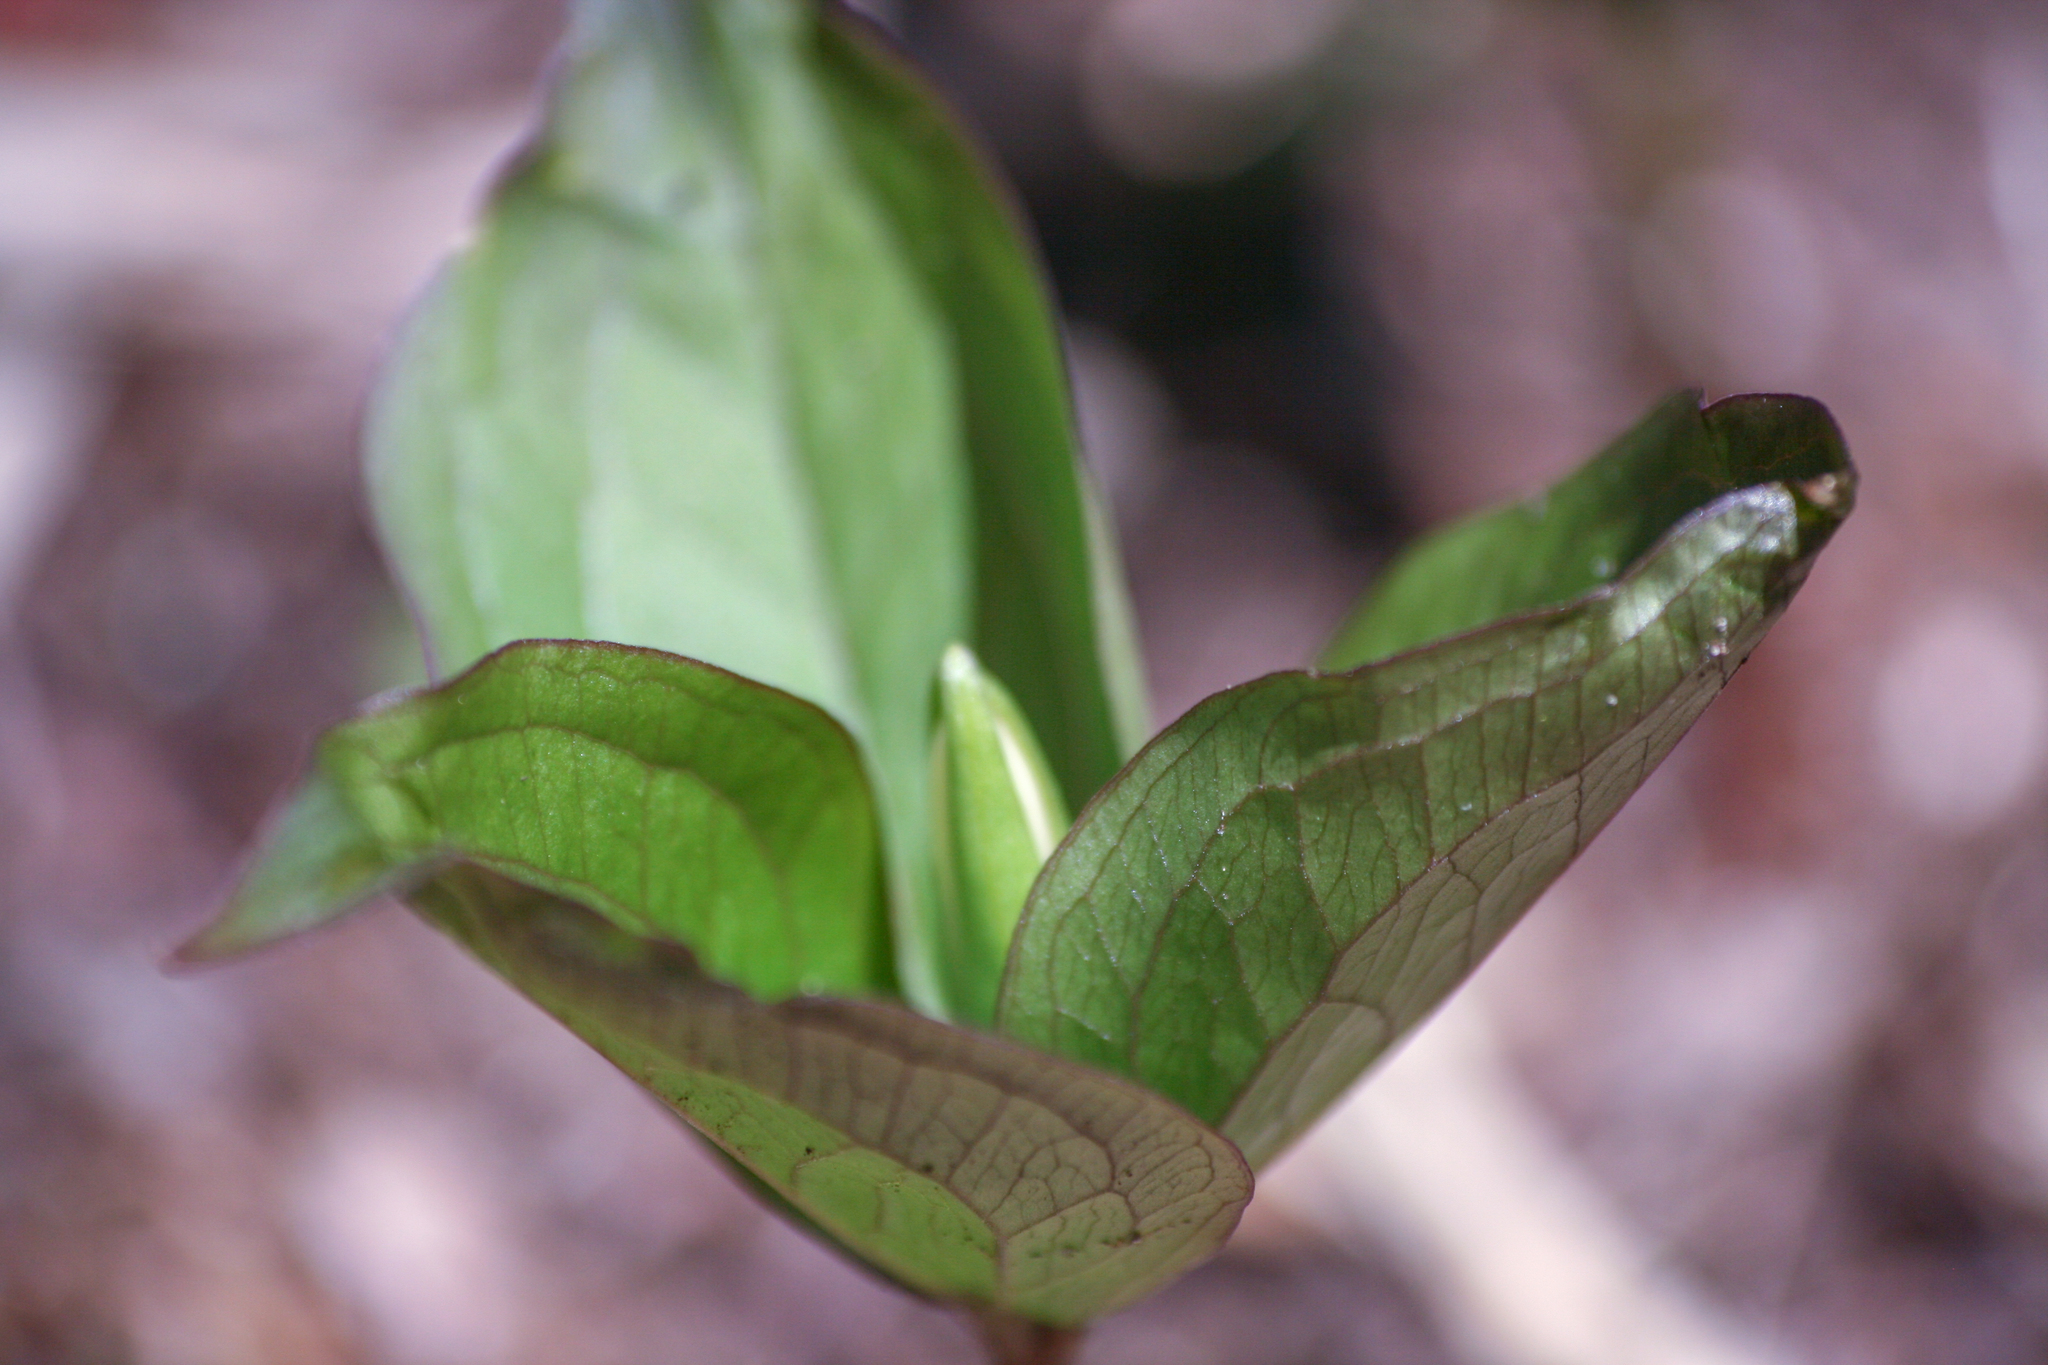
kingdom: Plantae
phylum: Tracheophyta
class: Liliopsida
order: Liliales
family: Melanthiaceae
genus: Trillium
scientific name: Trillium grandiflorum
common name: Great white trillium
